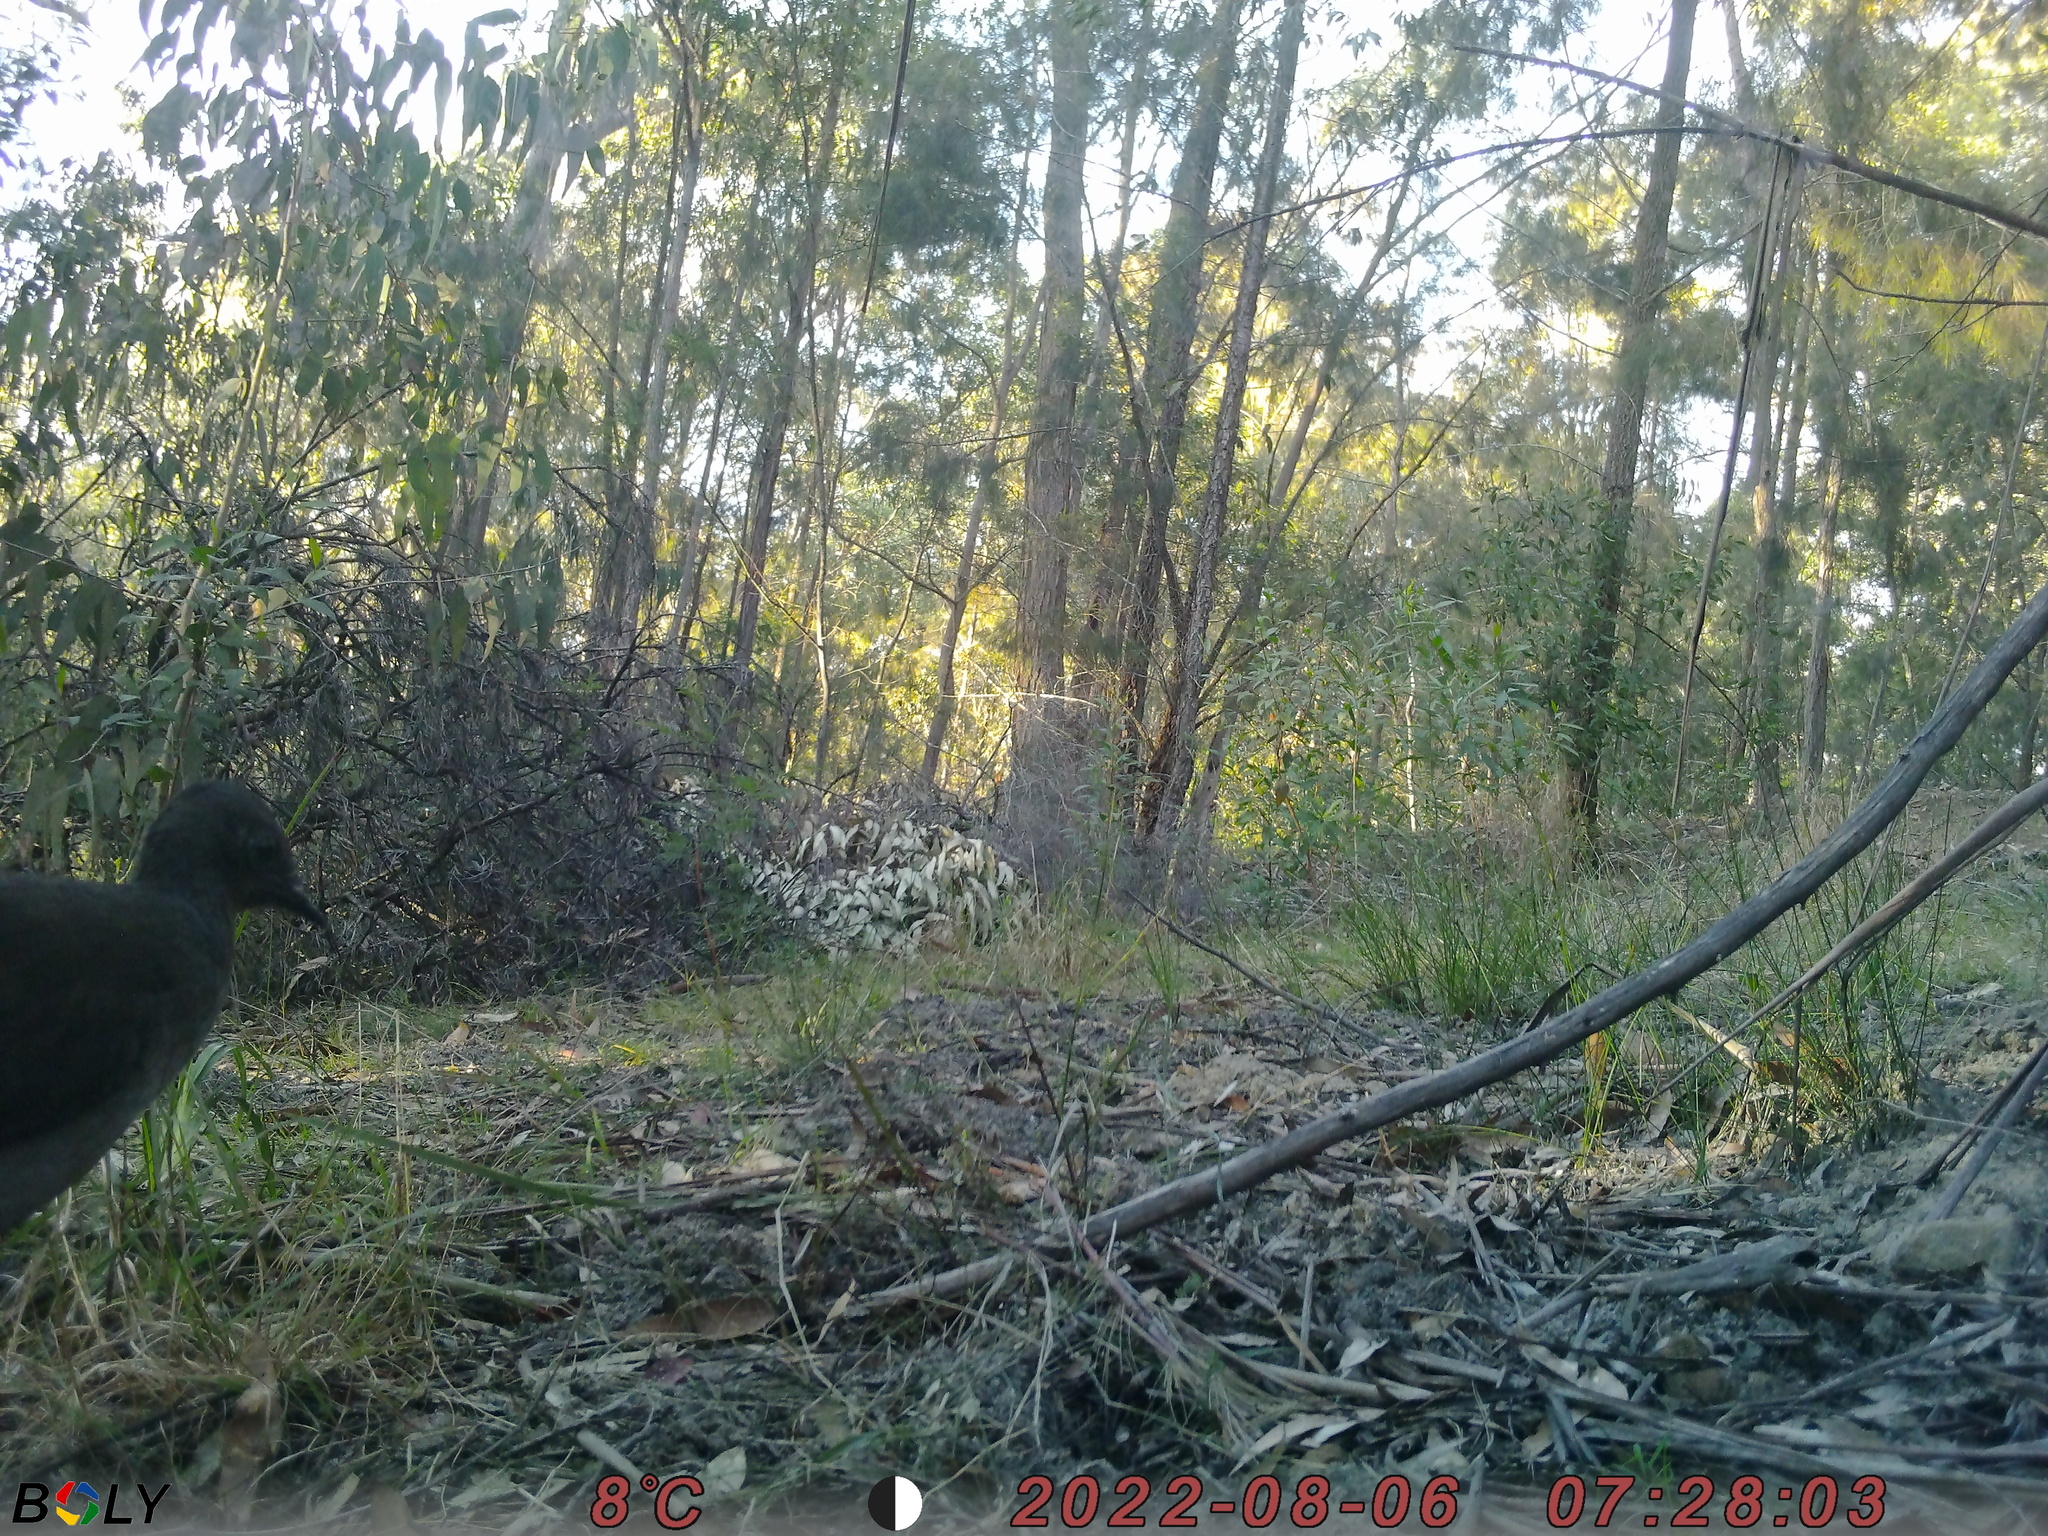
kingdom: Animalia
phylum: Chordata
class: Aves
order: Passeriformes
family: Menuridae
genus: Menura
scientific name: Menura novaehollandiae
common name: Superb lyrebird
